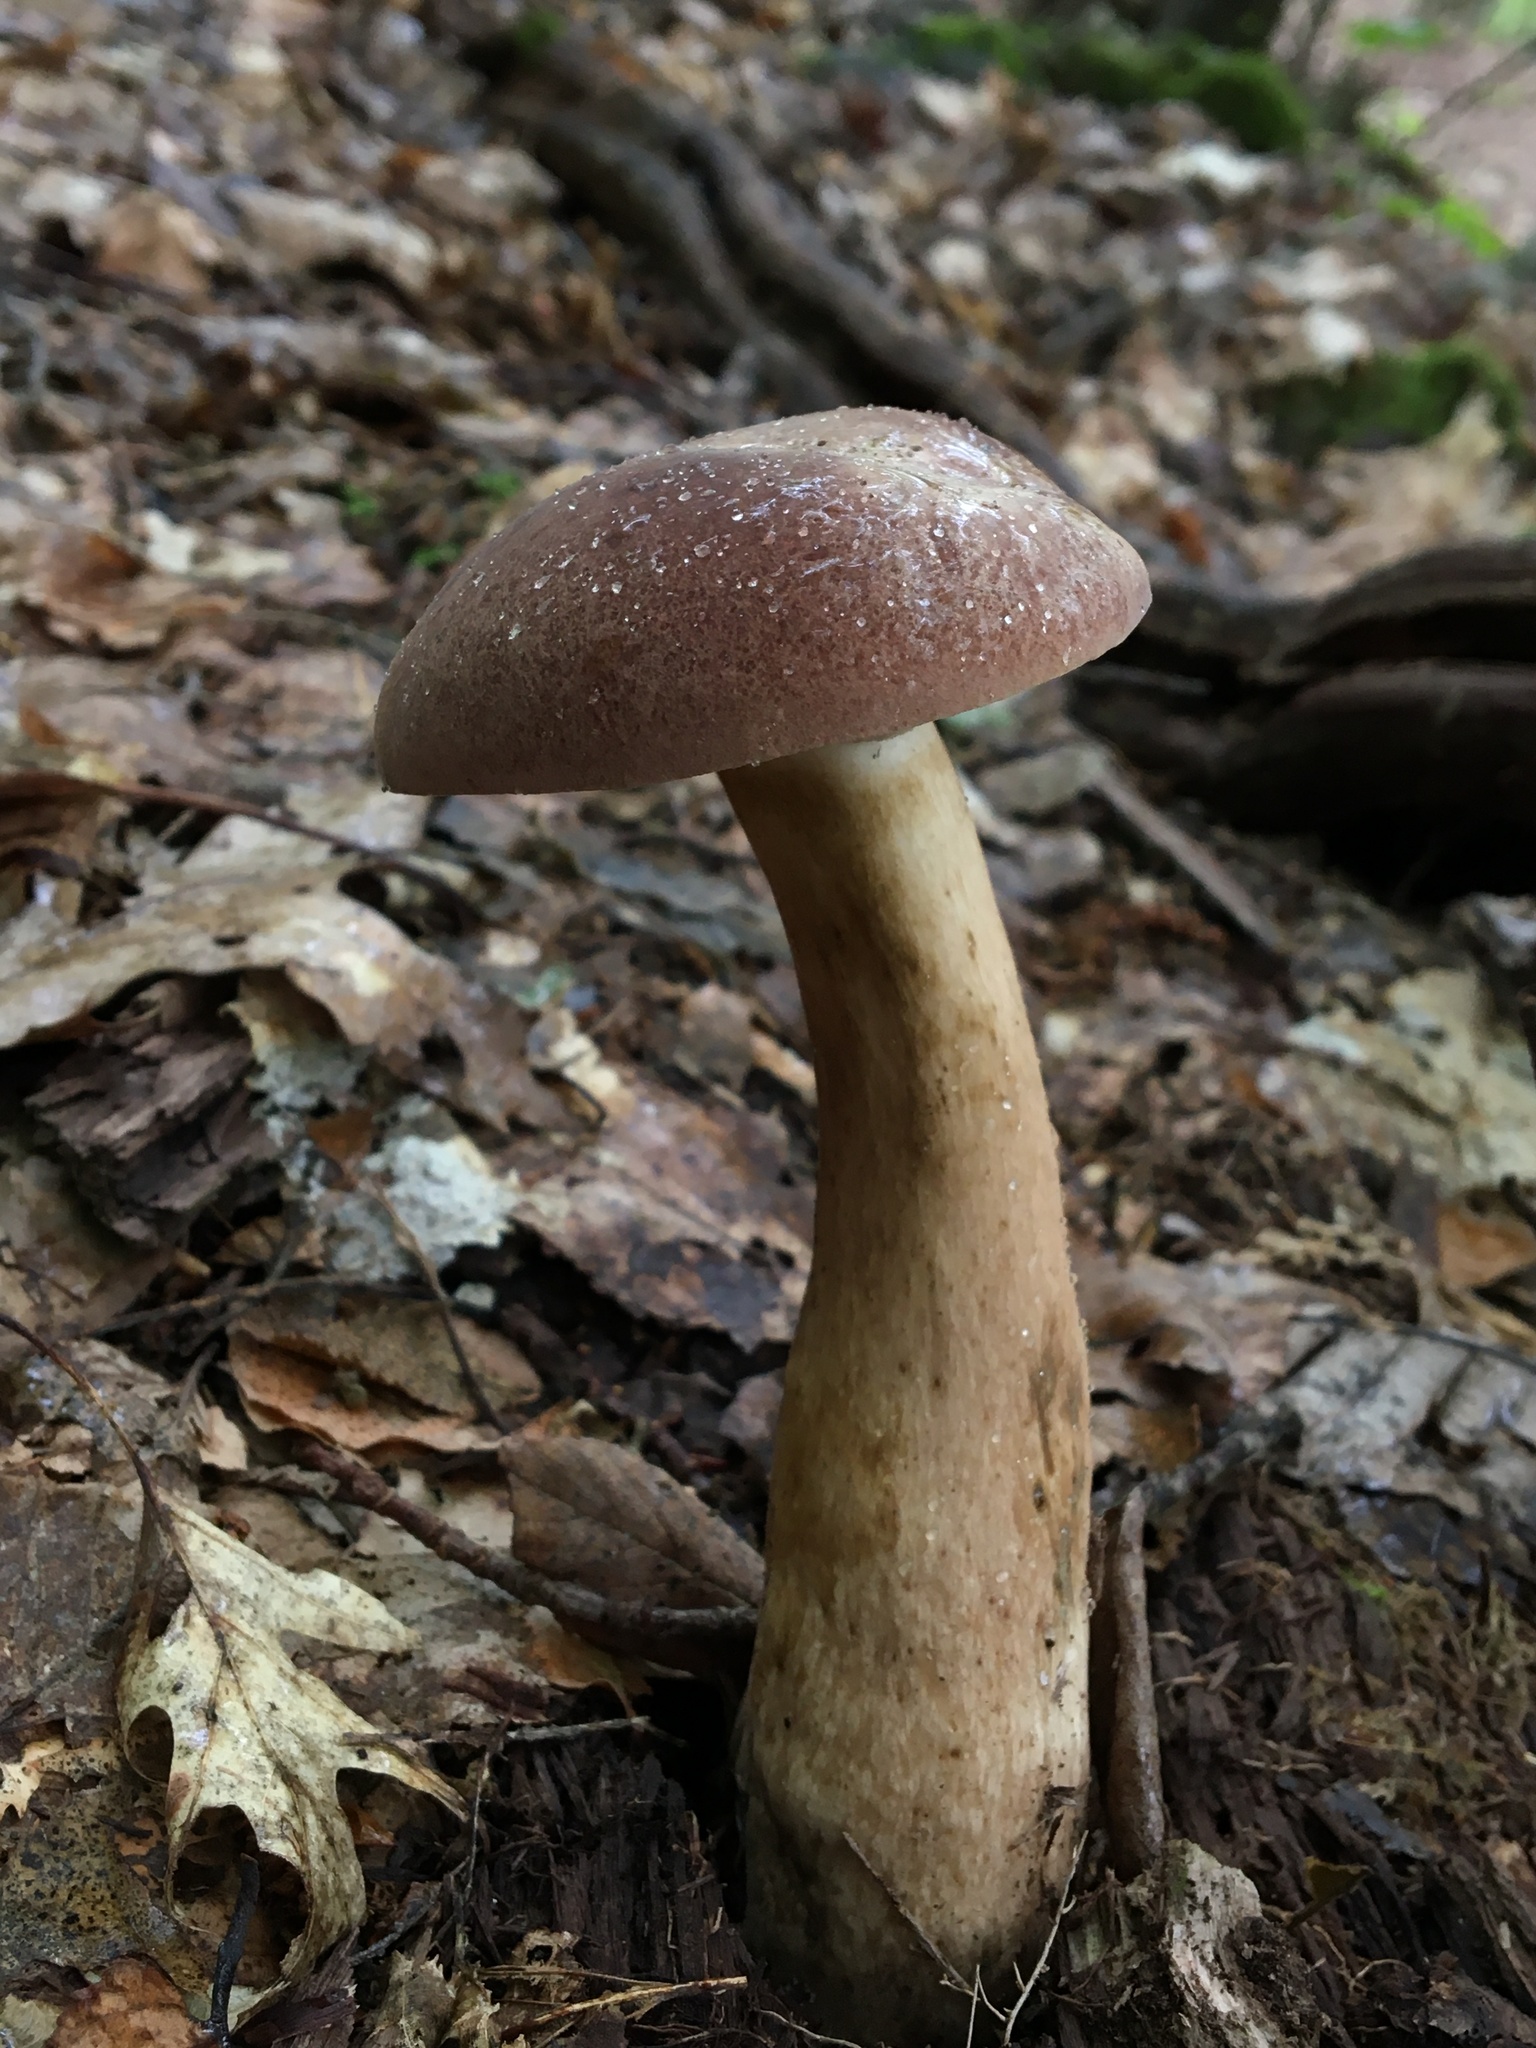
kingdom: Fungi
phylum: Basidiomycota
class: Agaricomycetes
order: Boletales
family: Boletaceae
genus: Tylopilus
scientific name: Tylopilus rubrobrunneus
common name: Reddish brown bitter bolete
